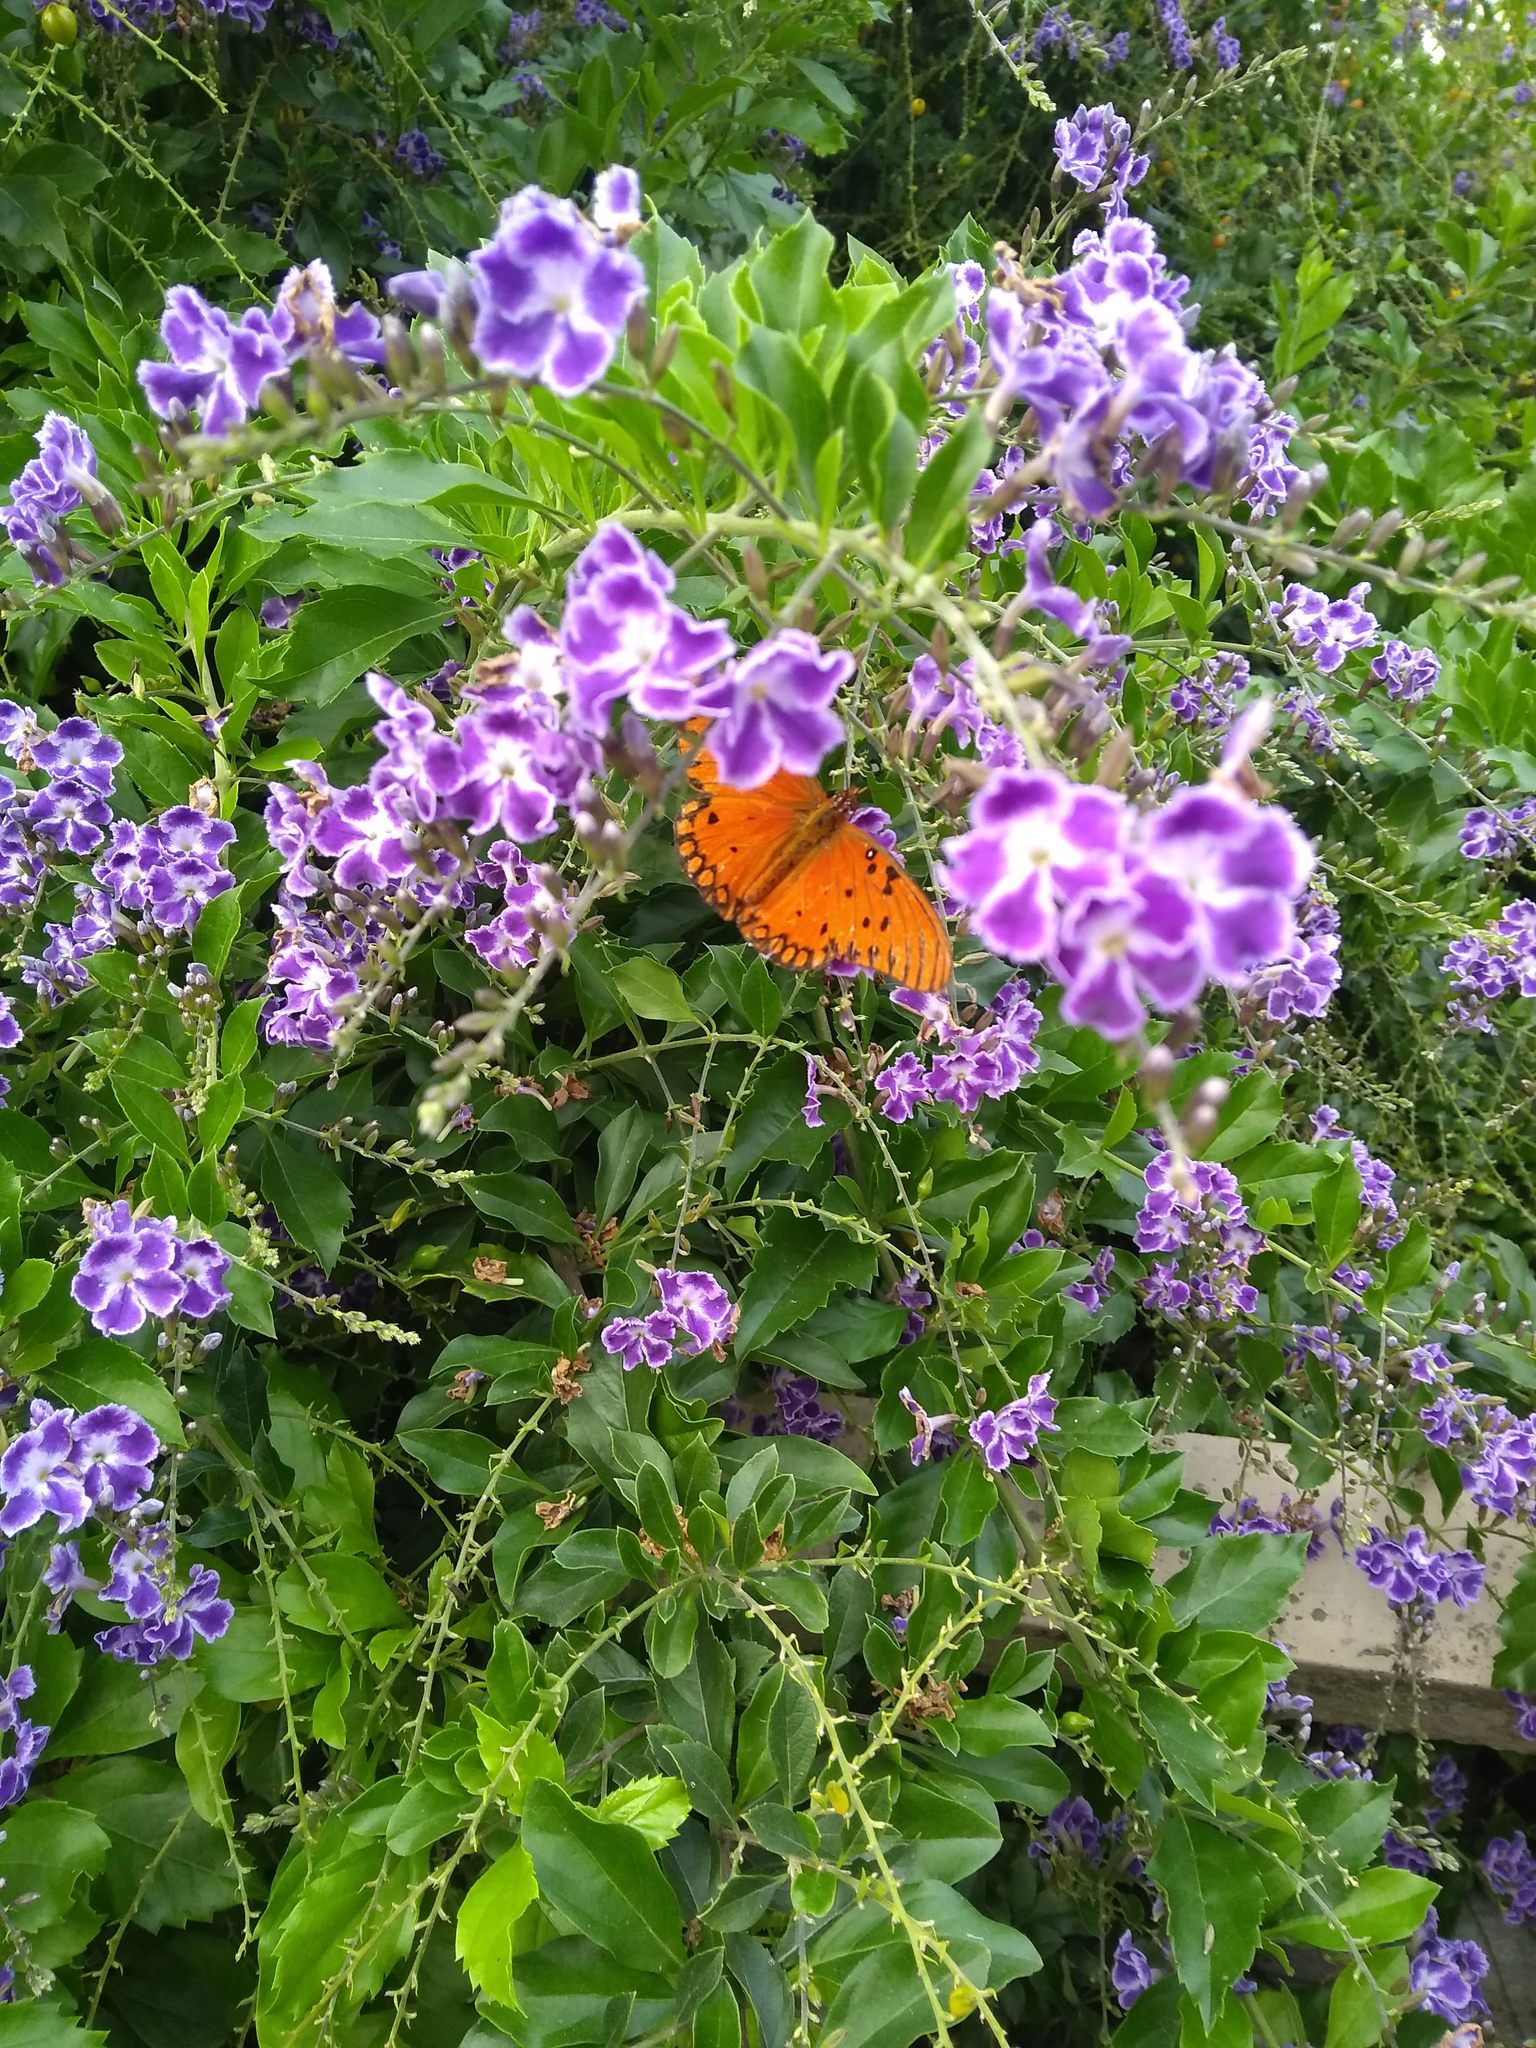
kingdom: Animalia
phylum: Arthropoda
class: Insecta
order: Lepidoptera
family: Nymphalidae
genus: Dione
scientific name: Dione vanillae
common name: Gulf fritillary
